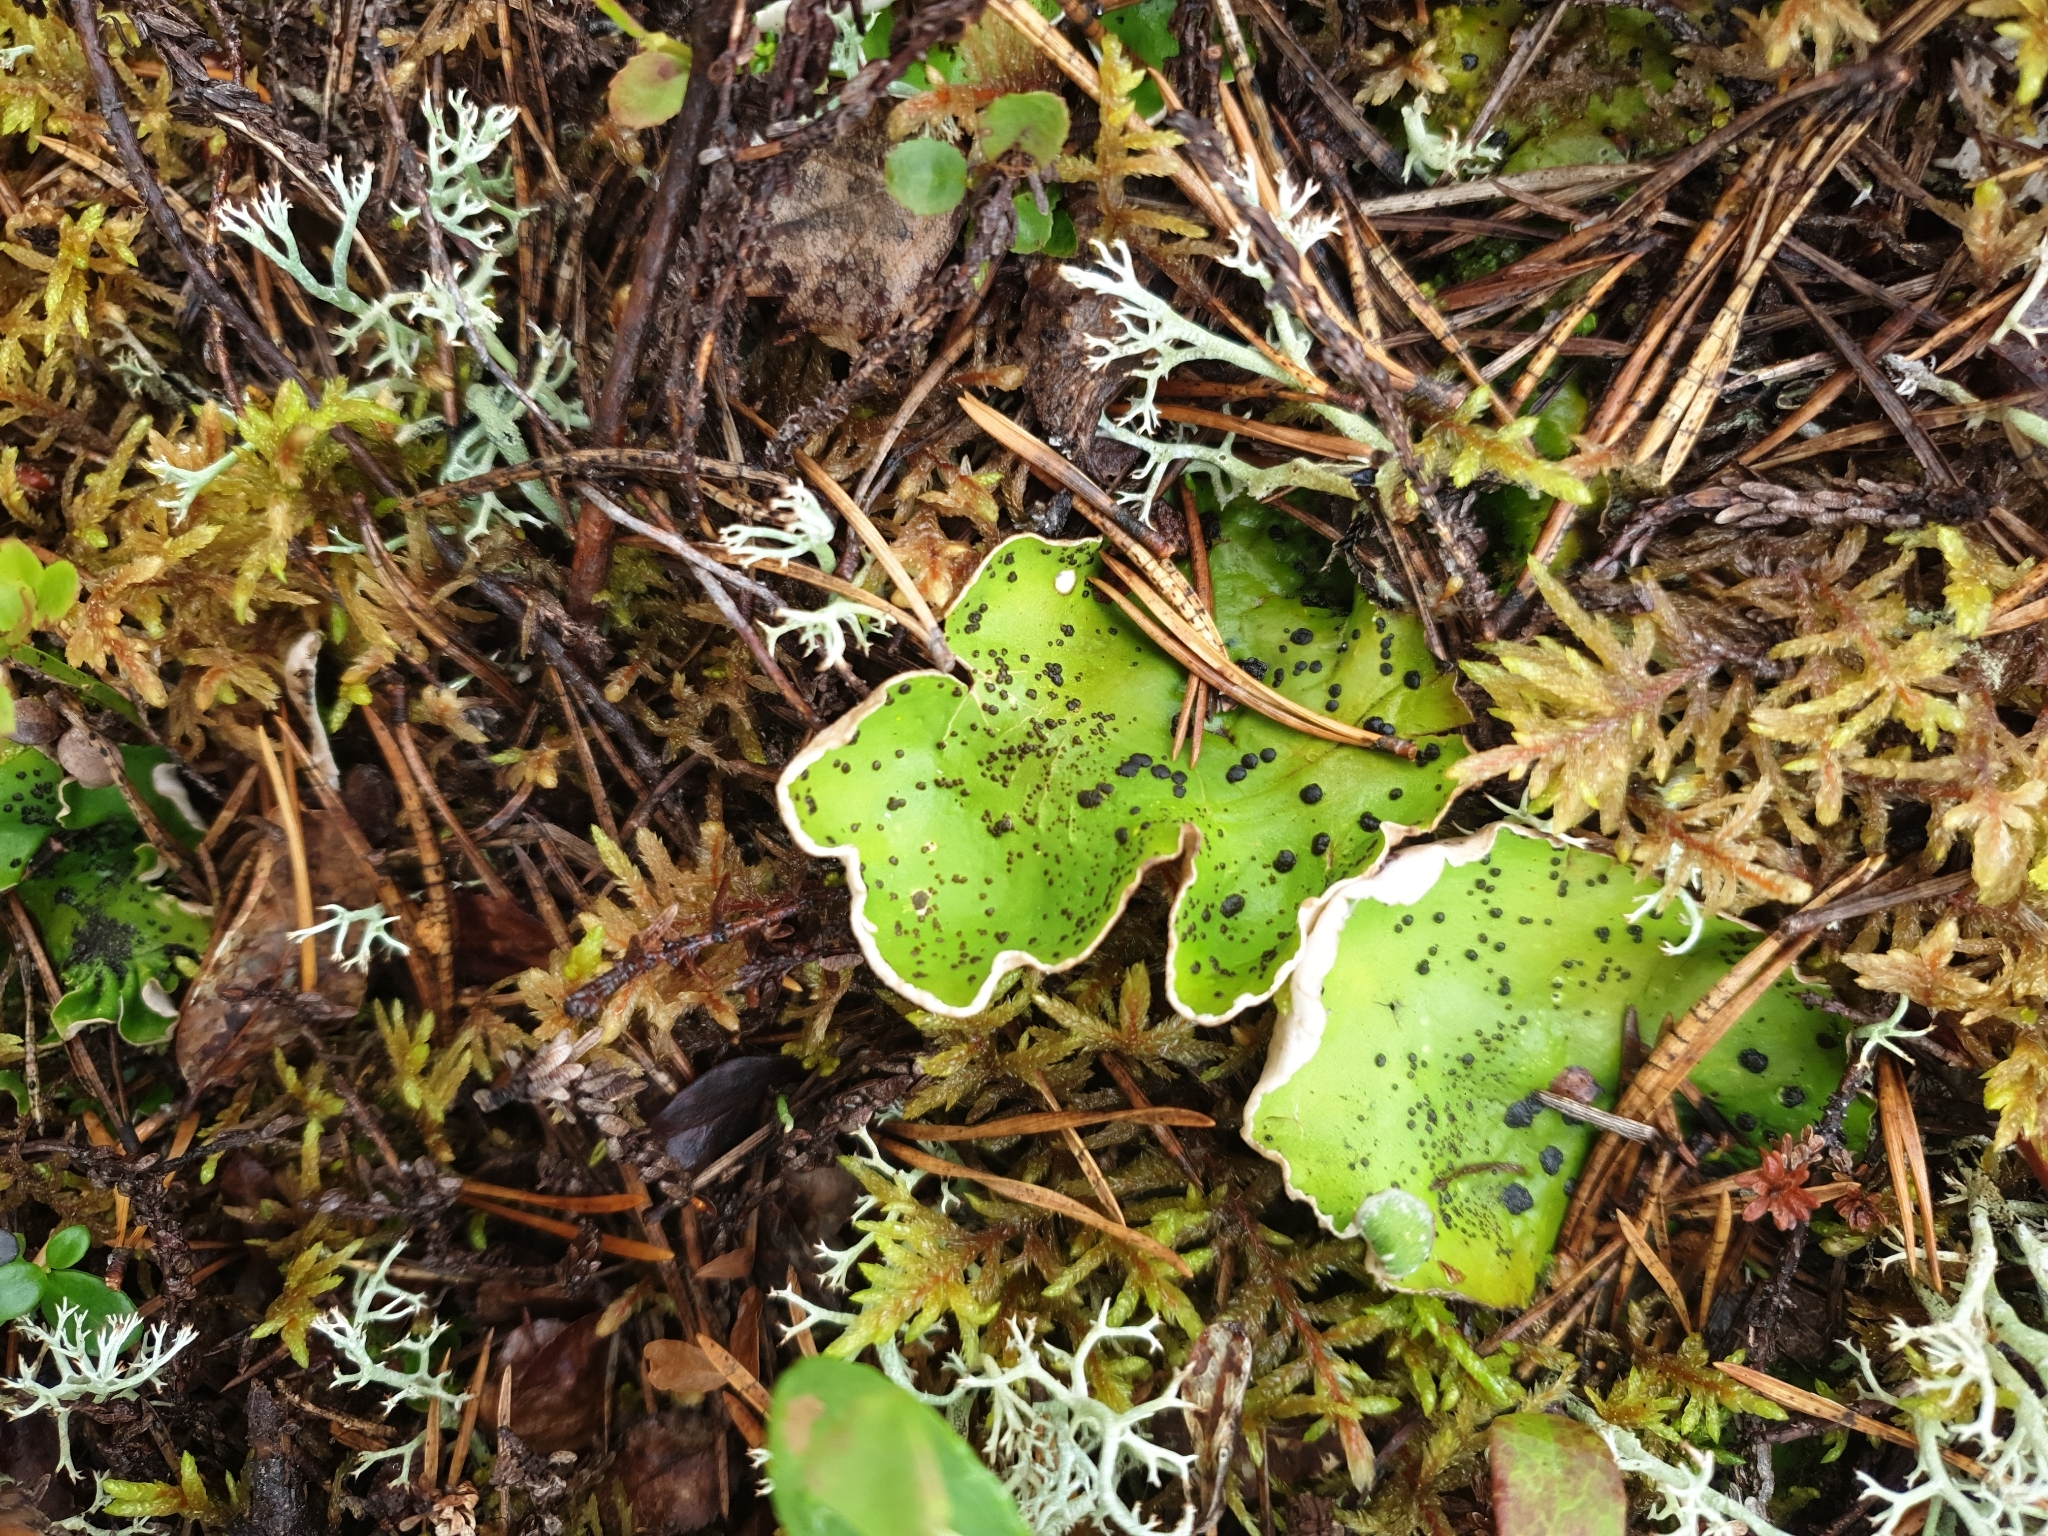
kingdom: Fungi
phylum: Ascomycota
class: Lecanoromycetes
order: Peltigerales
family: Peltigeraceae
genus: Peltigera
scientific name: Peltigera aphthosa
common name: Common freckle pelt lichen
